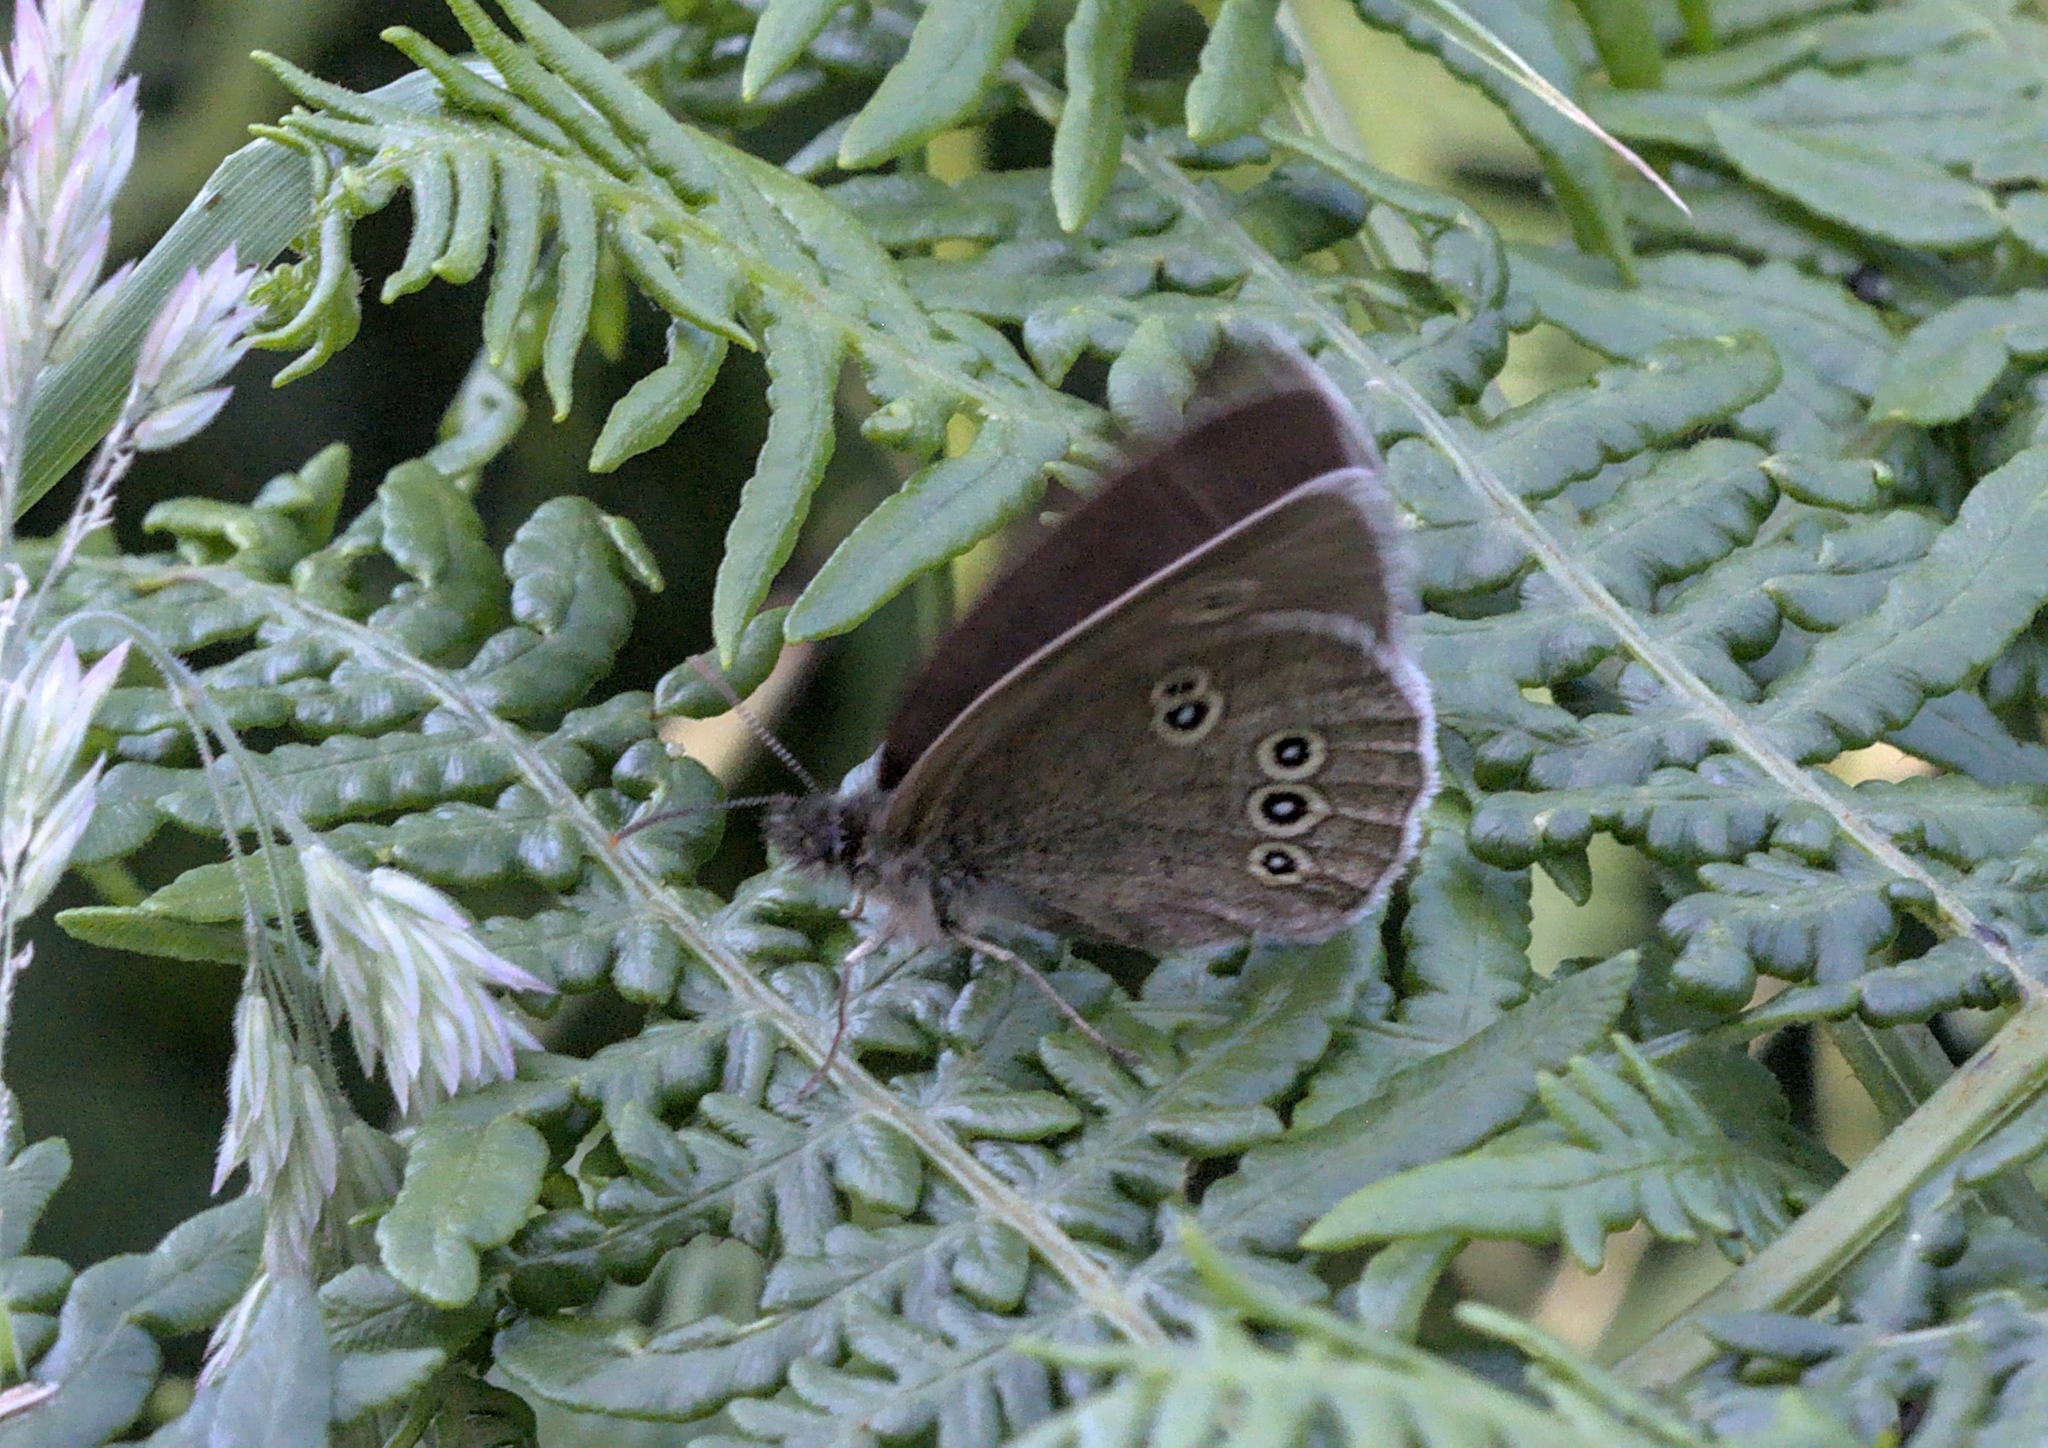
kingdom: Animalia
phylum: Arthropoda
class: Insecta
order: Lepidoptera
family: Nymphalidae
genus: Aphantopus
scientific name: Aphantopus hyperantus
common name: Ringlet
